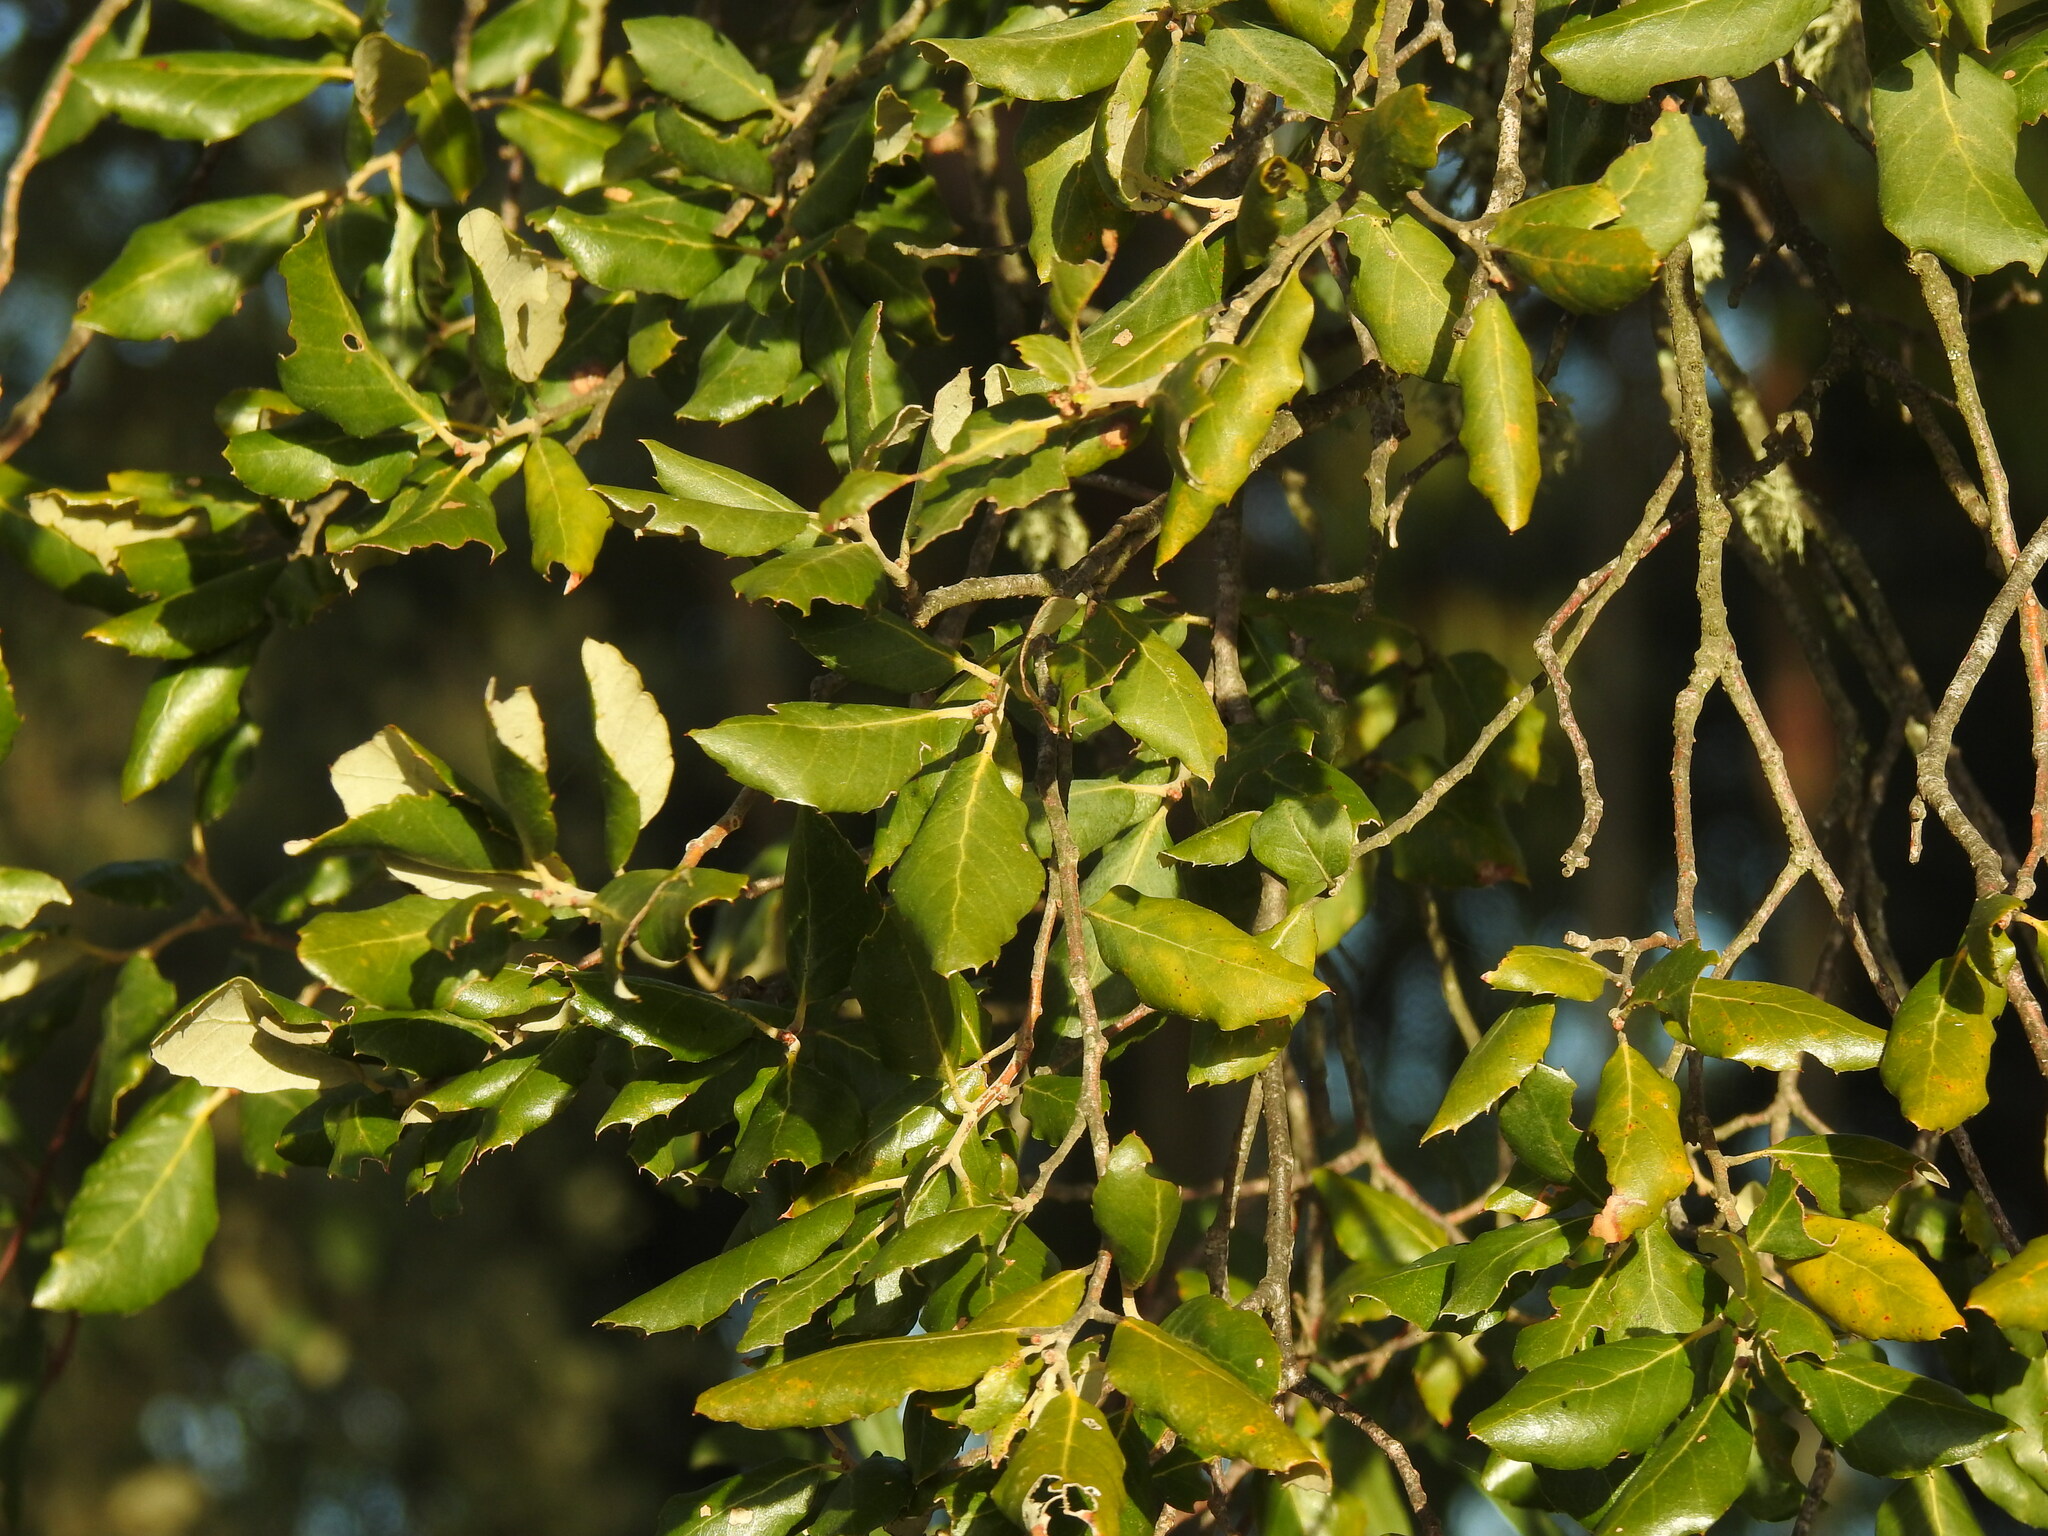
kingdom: Plantae
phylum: Tracheophyta
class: Magnoliopsida
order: Fagales
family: Fagaceae
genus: Quercus
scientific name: Quercus suber
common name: Cork oak
